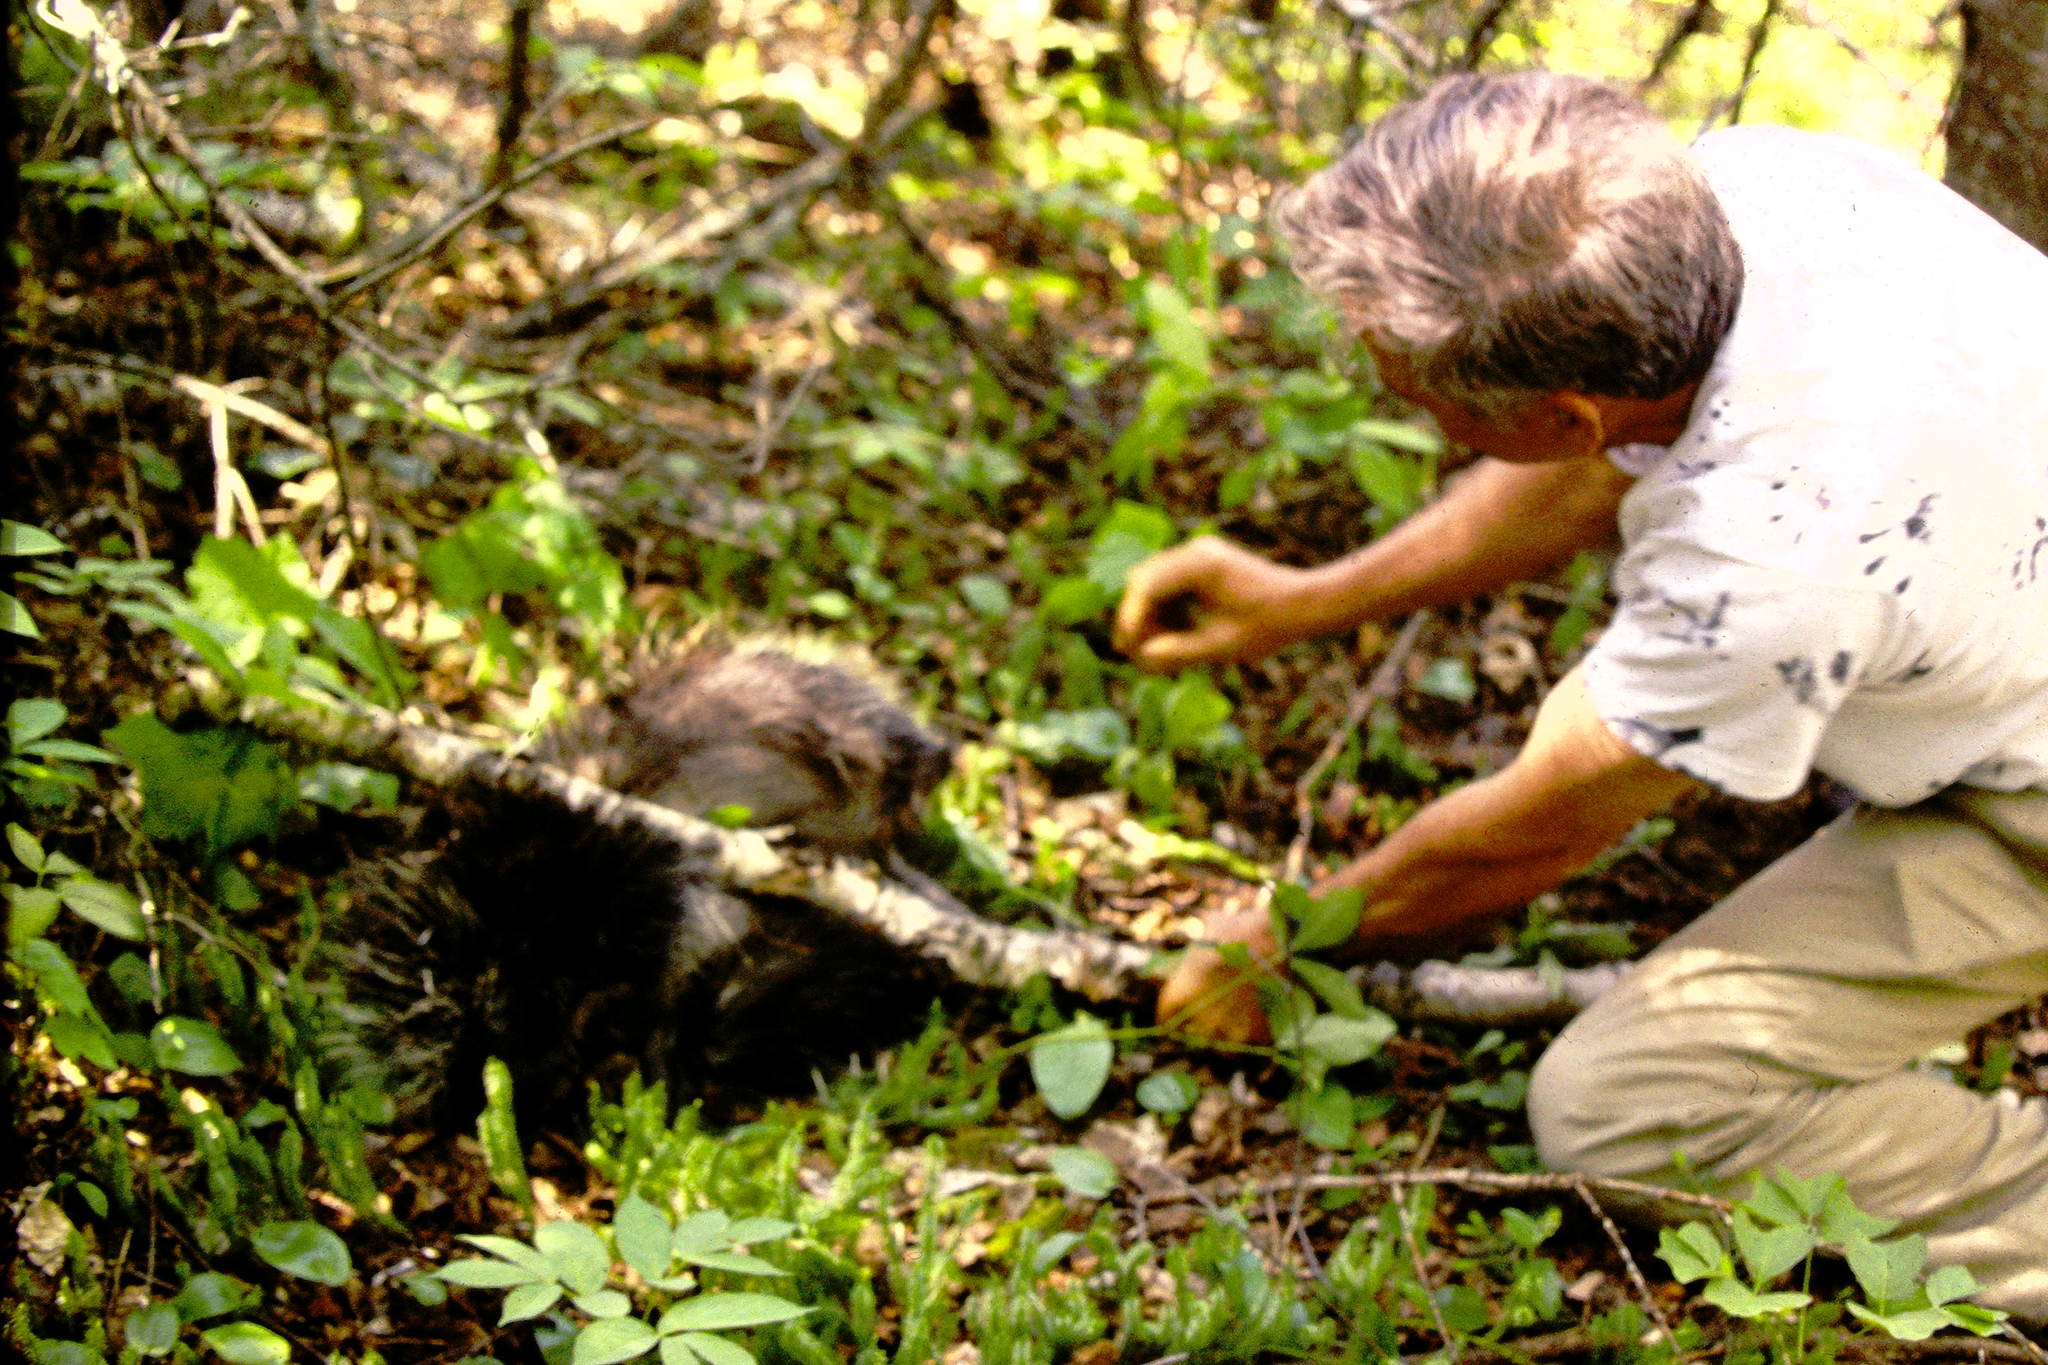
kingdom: Animalia
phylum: Chordata
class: Mammalia
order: Rodentia
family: Erethizontidae
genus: Erethizon
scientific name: Erethizon dorsatus
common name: North american porcupine
